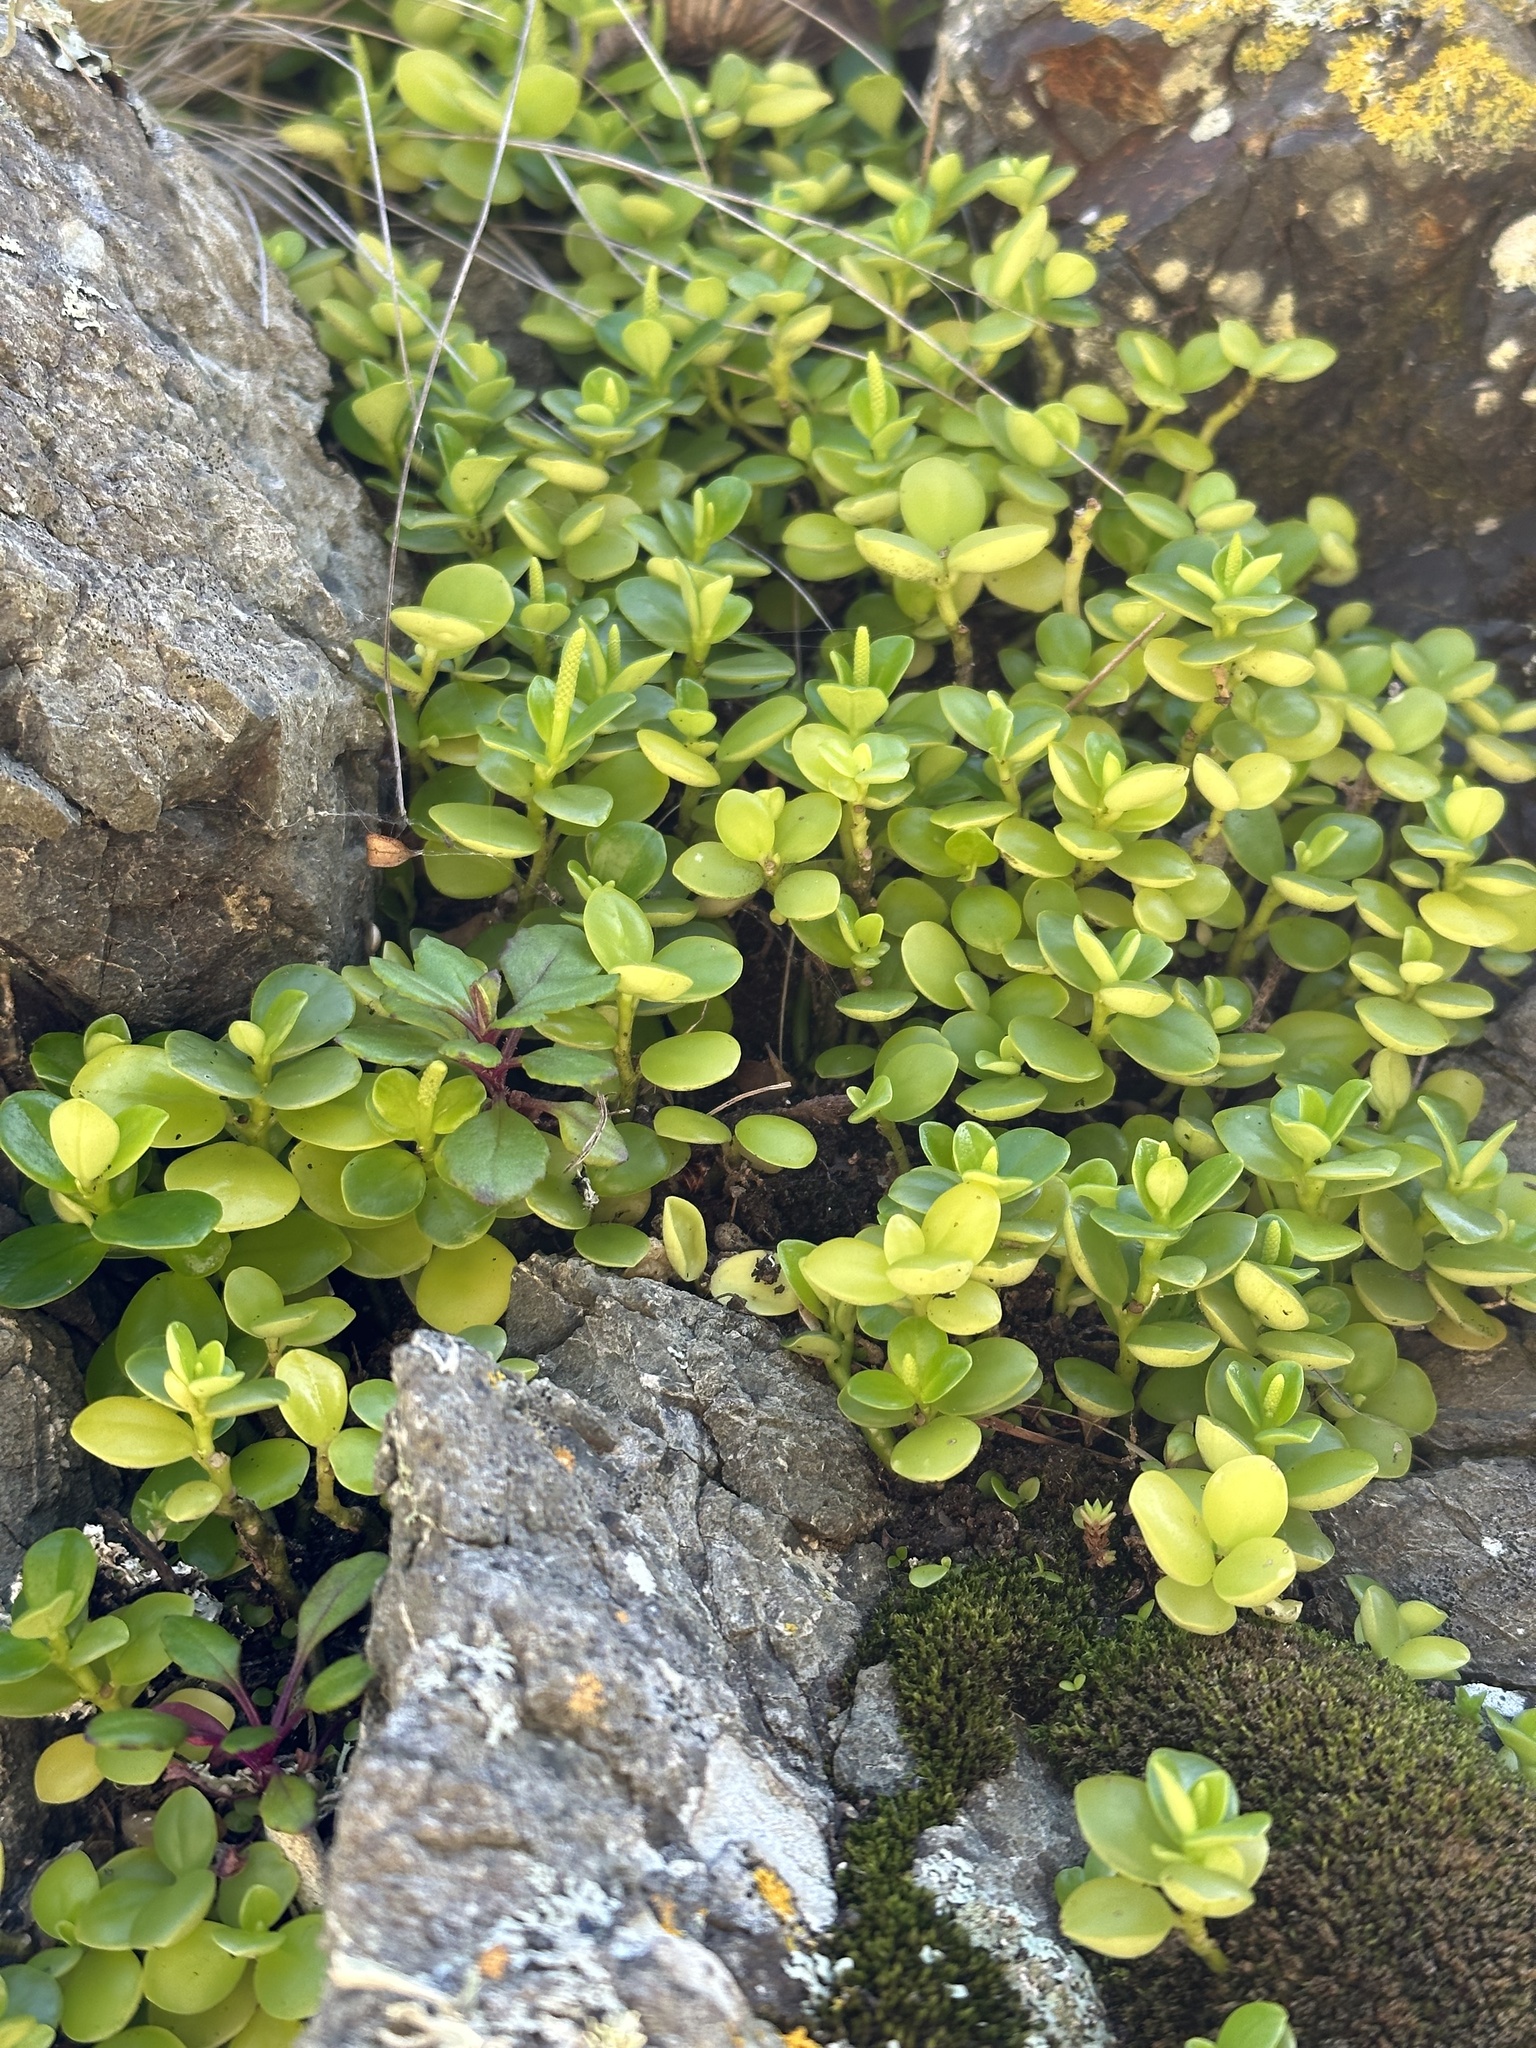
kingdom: Plantae
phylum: Tracheophyta
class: Magnoliopsida
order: Piperales
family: Piperaceae
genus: Peperomia
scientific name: Peperomia urvilleana
